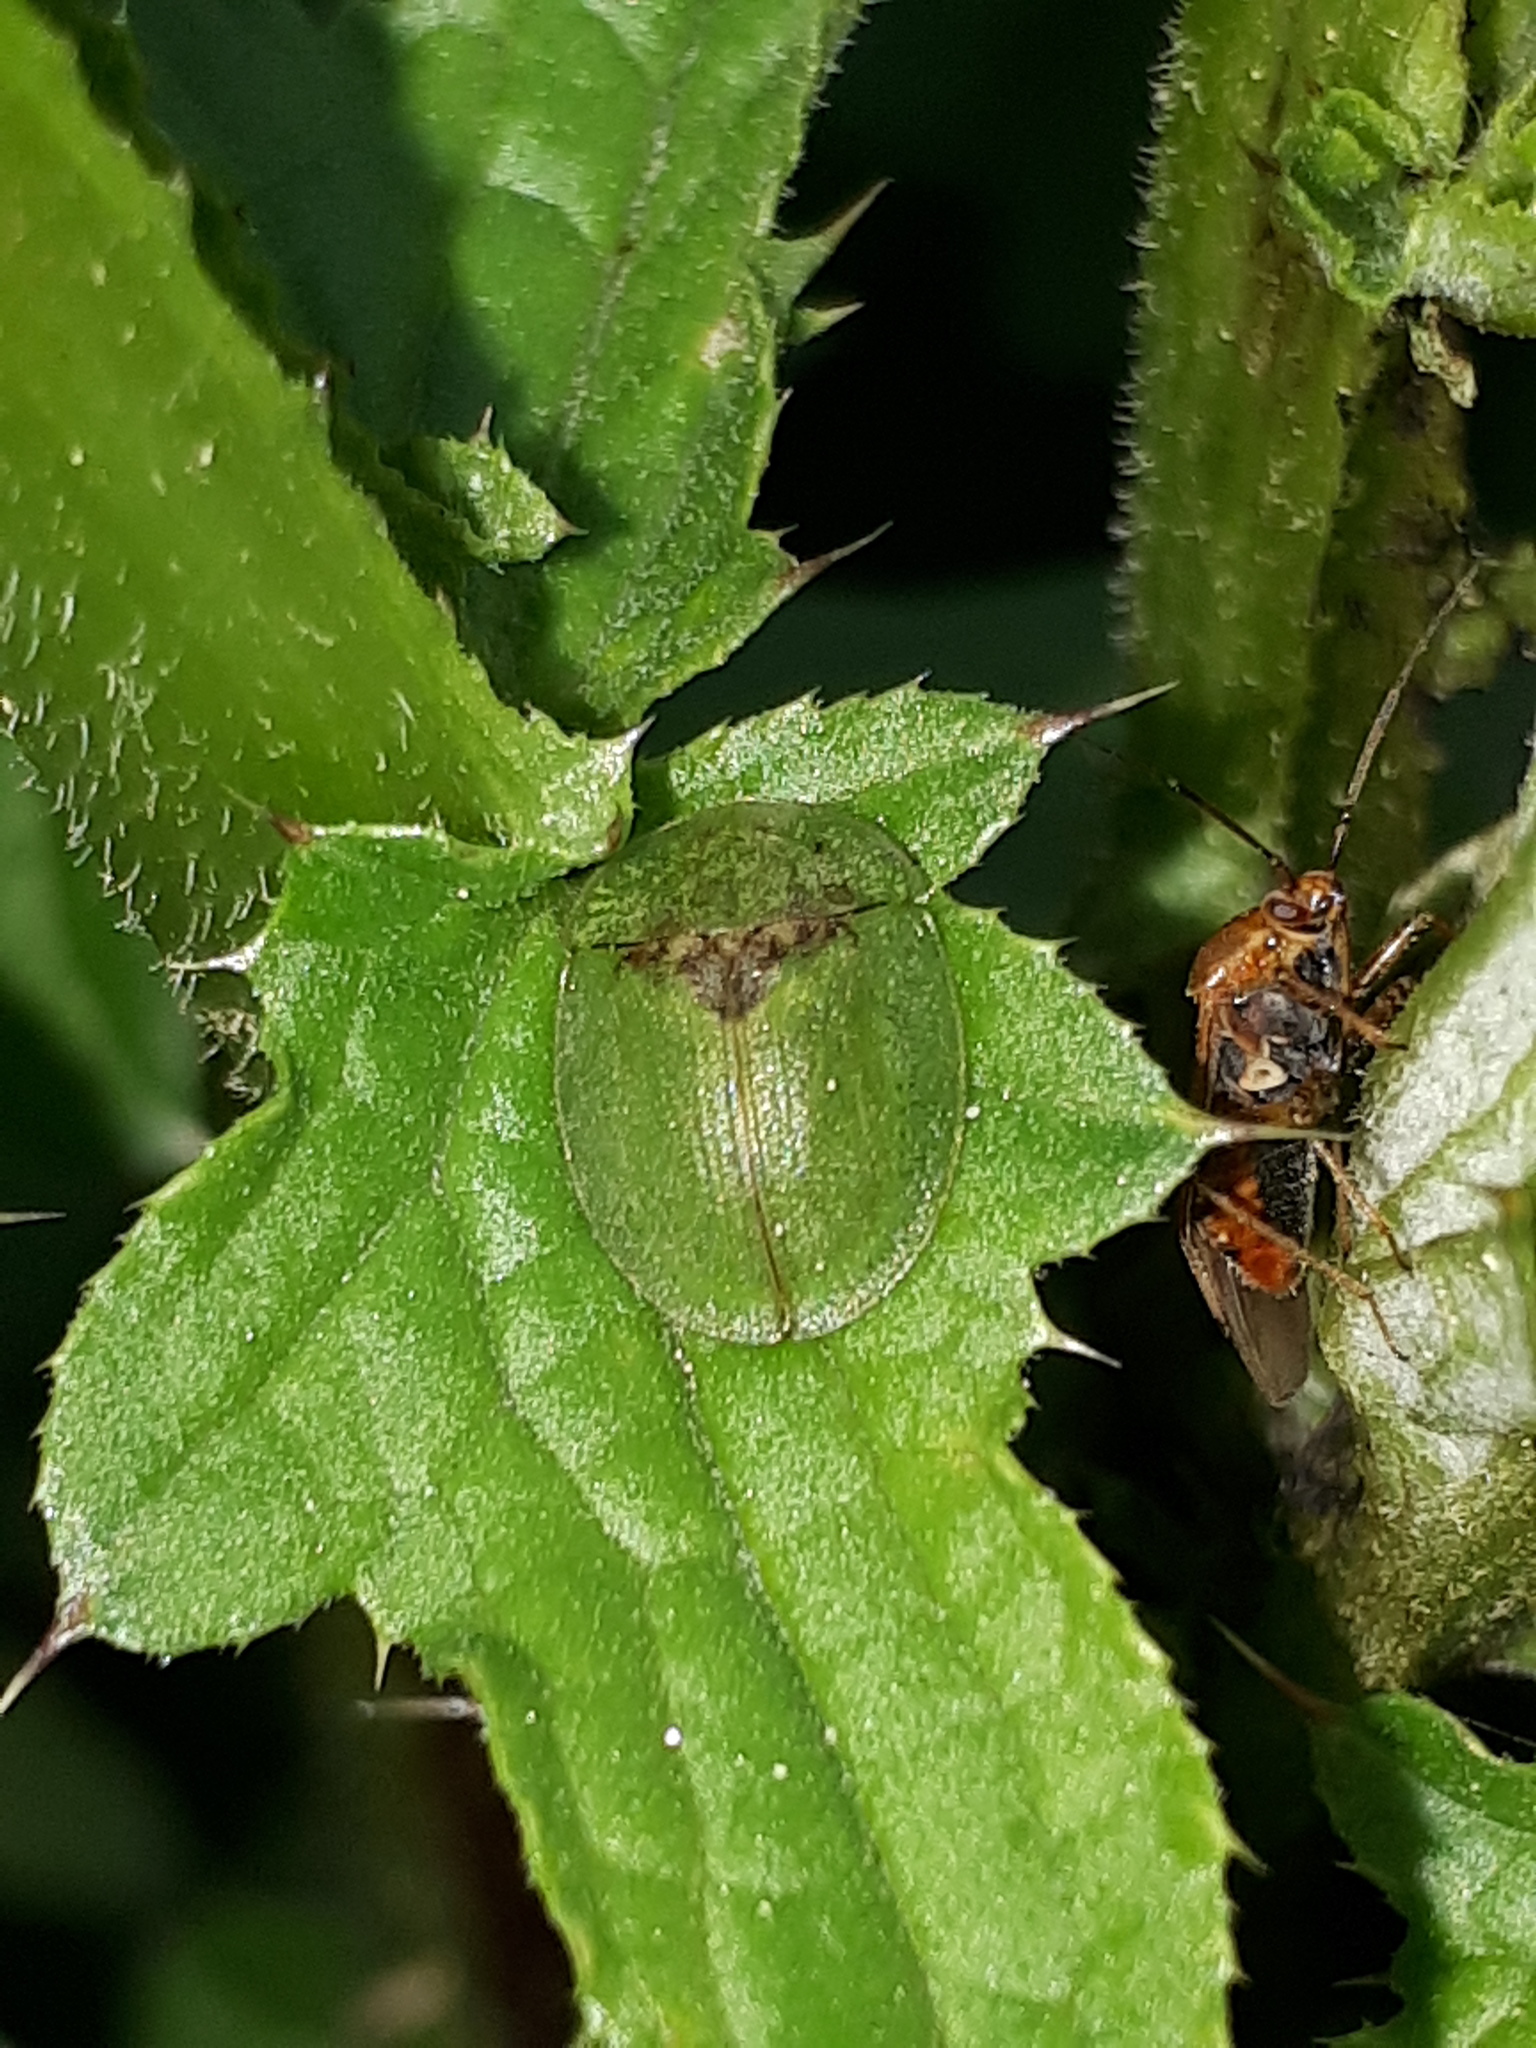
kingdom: Animalia
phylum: Arthropoda
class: Insecta
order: Coleoptera
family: Chrysomelidae
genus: Cassida
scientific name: Cassida rubiginosa
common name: Thistle tortoise beetle
